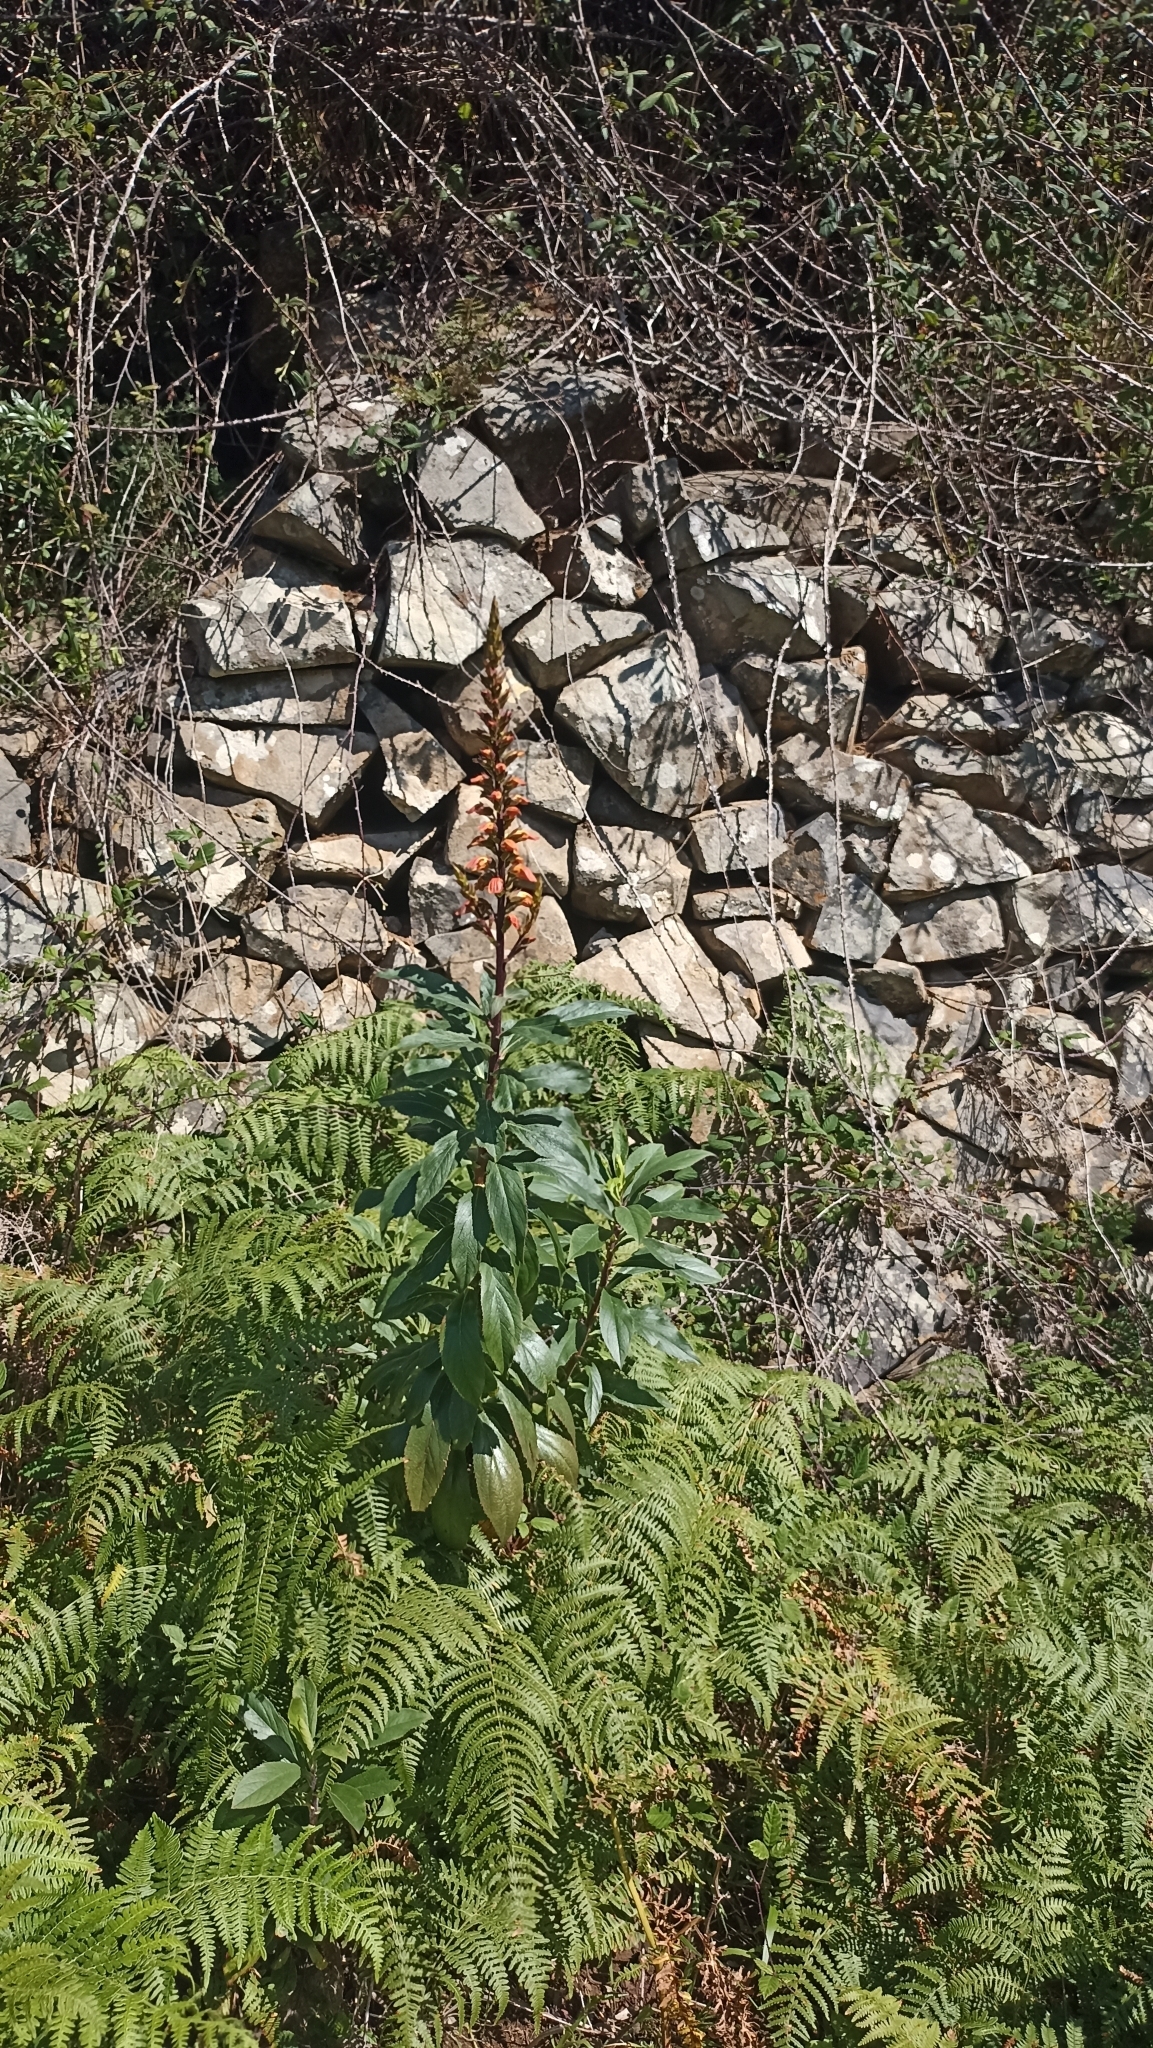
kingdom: Plantae
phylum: Tracheophyta
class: Magnoliopsida
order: Lamiales
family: Plantaginaceae
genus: Digitalis
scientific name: Digitalis canariensis
